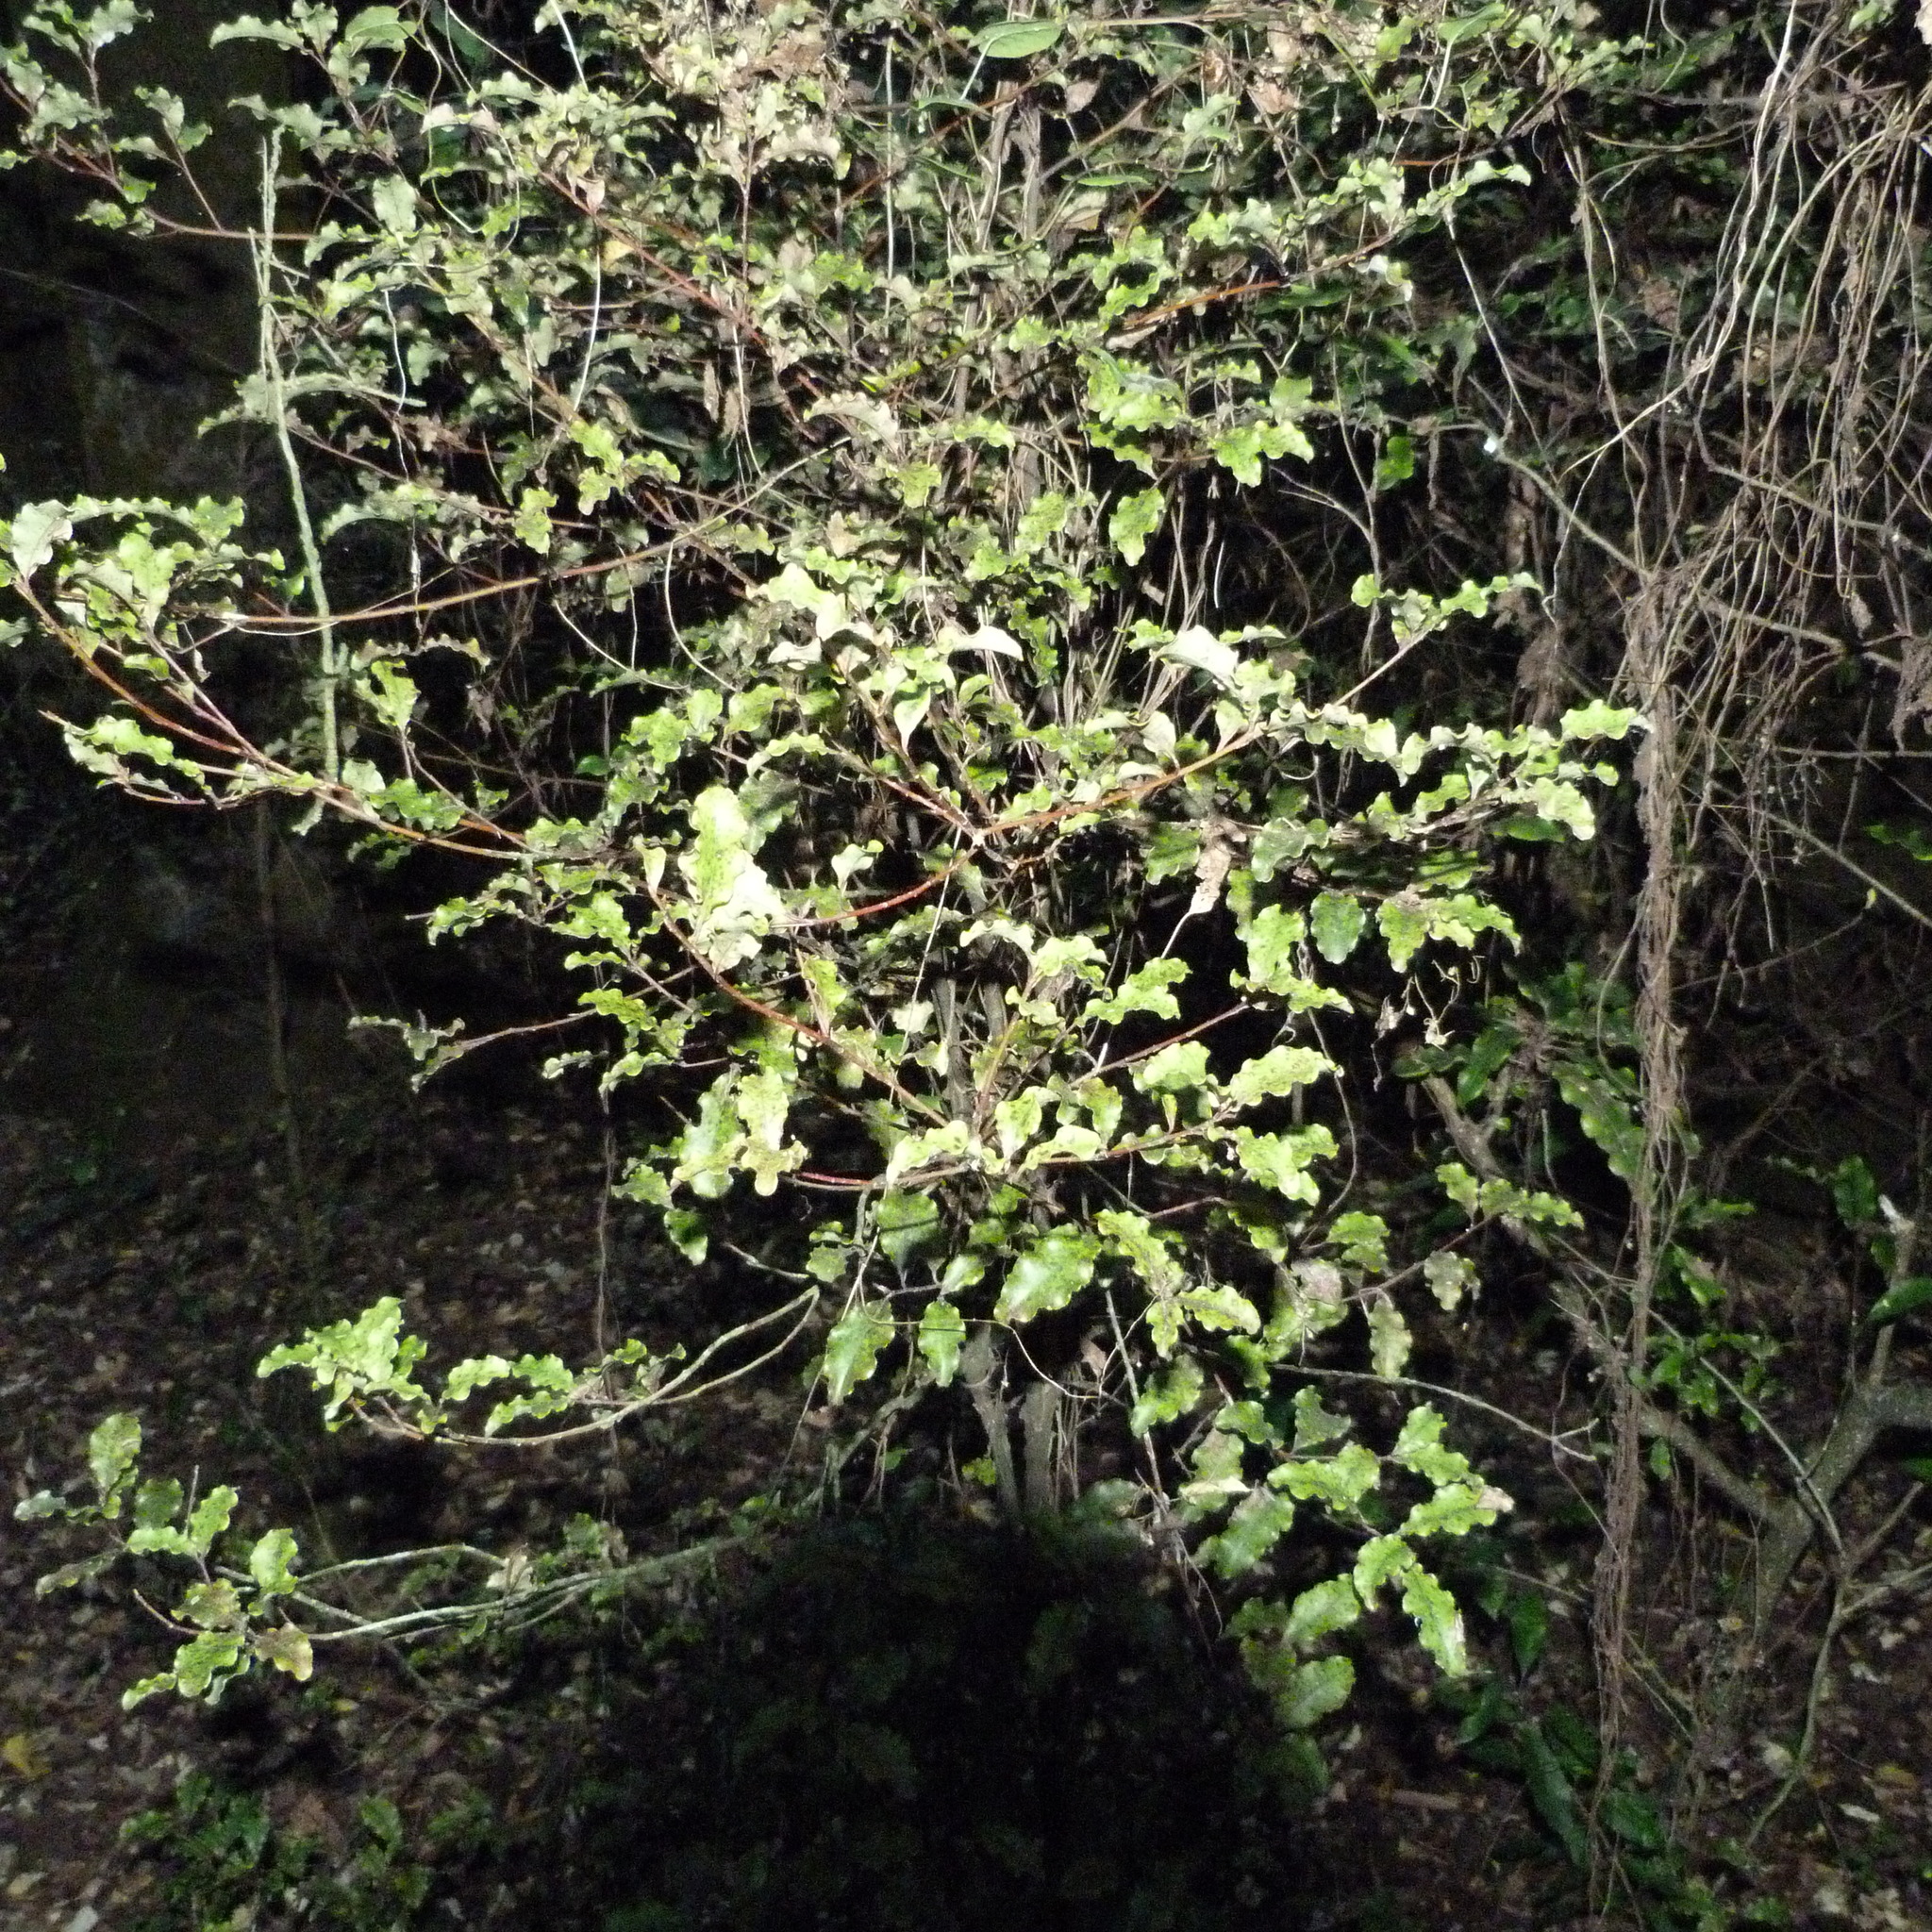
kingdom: Plantae
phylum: Tracheophyta
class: Magnoliopsida
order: Ericales
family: Primulaceae
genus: Myrsine
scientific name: Myrsine australis
